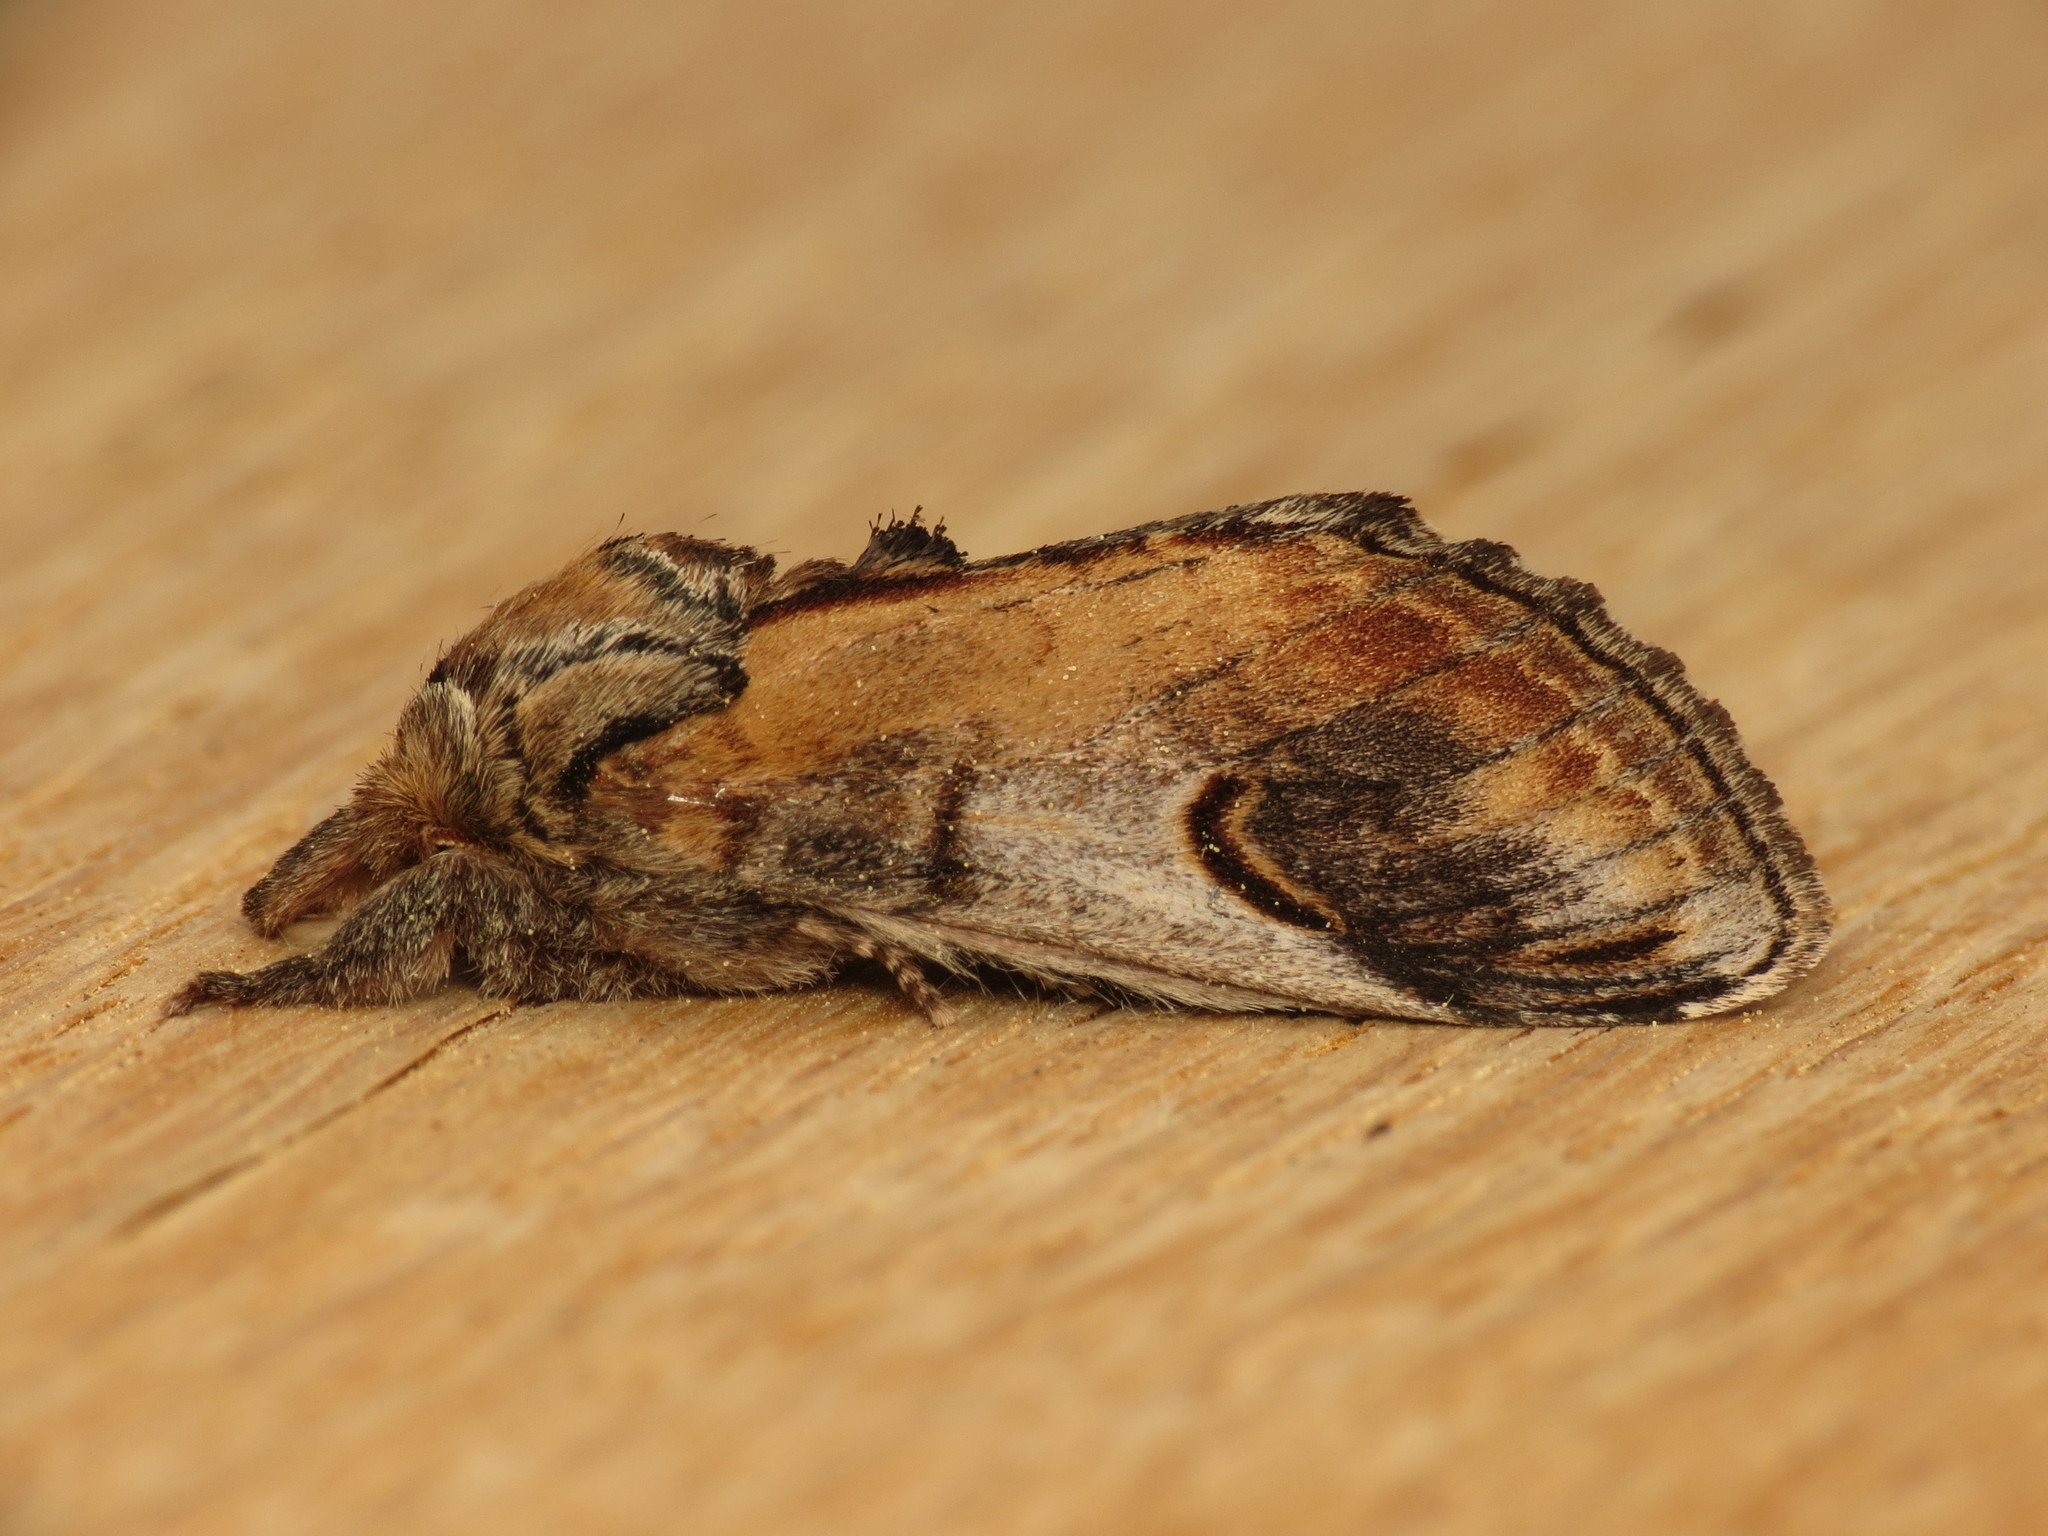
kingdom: Animalia
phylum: Arthropoda
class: Insecta
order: Lepidoptera
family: Notodontidae
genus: Notodonta
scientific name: Notodonta ziczac
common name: Pebble prominent
